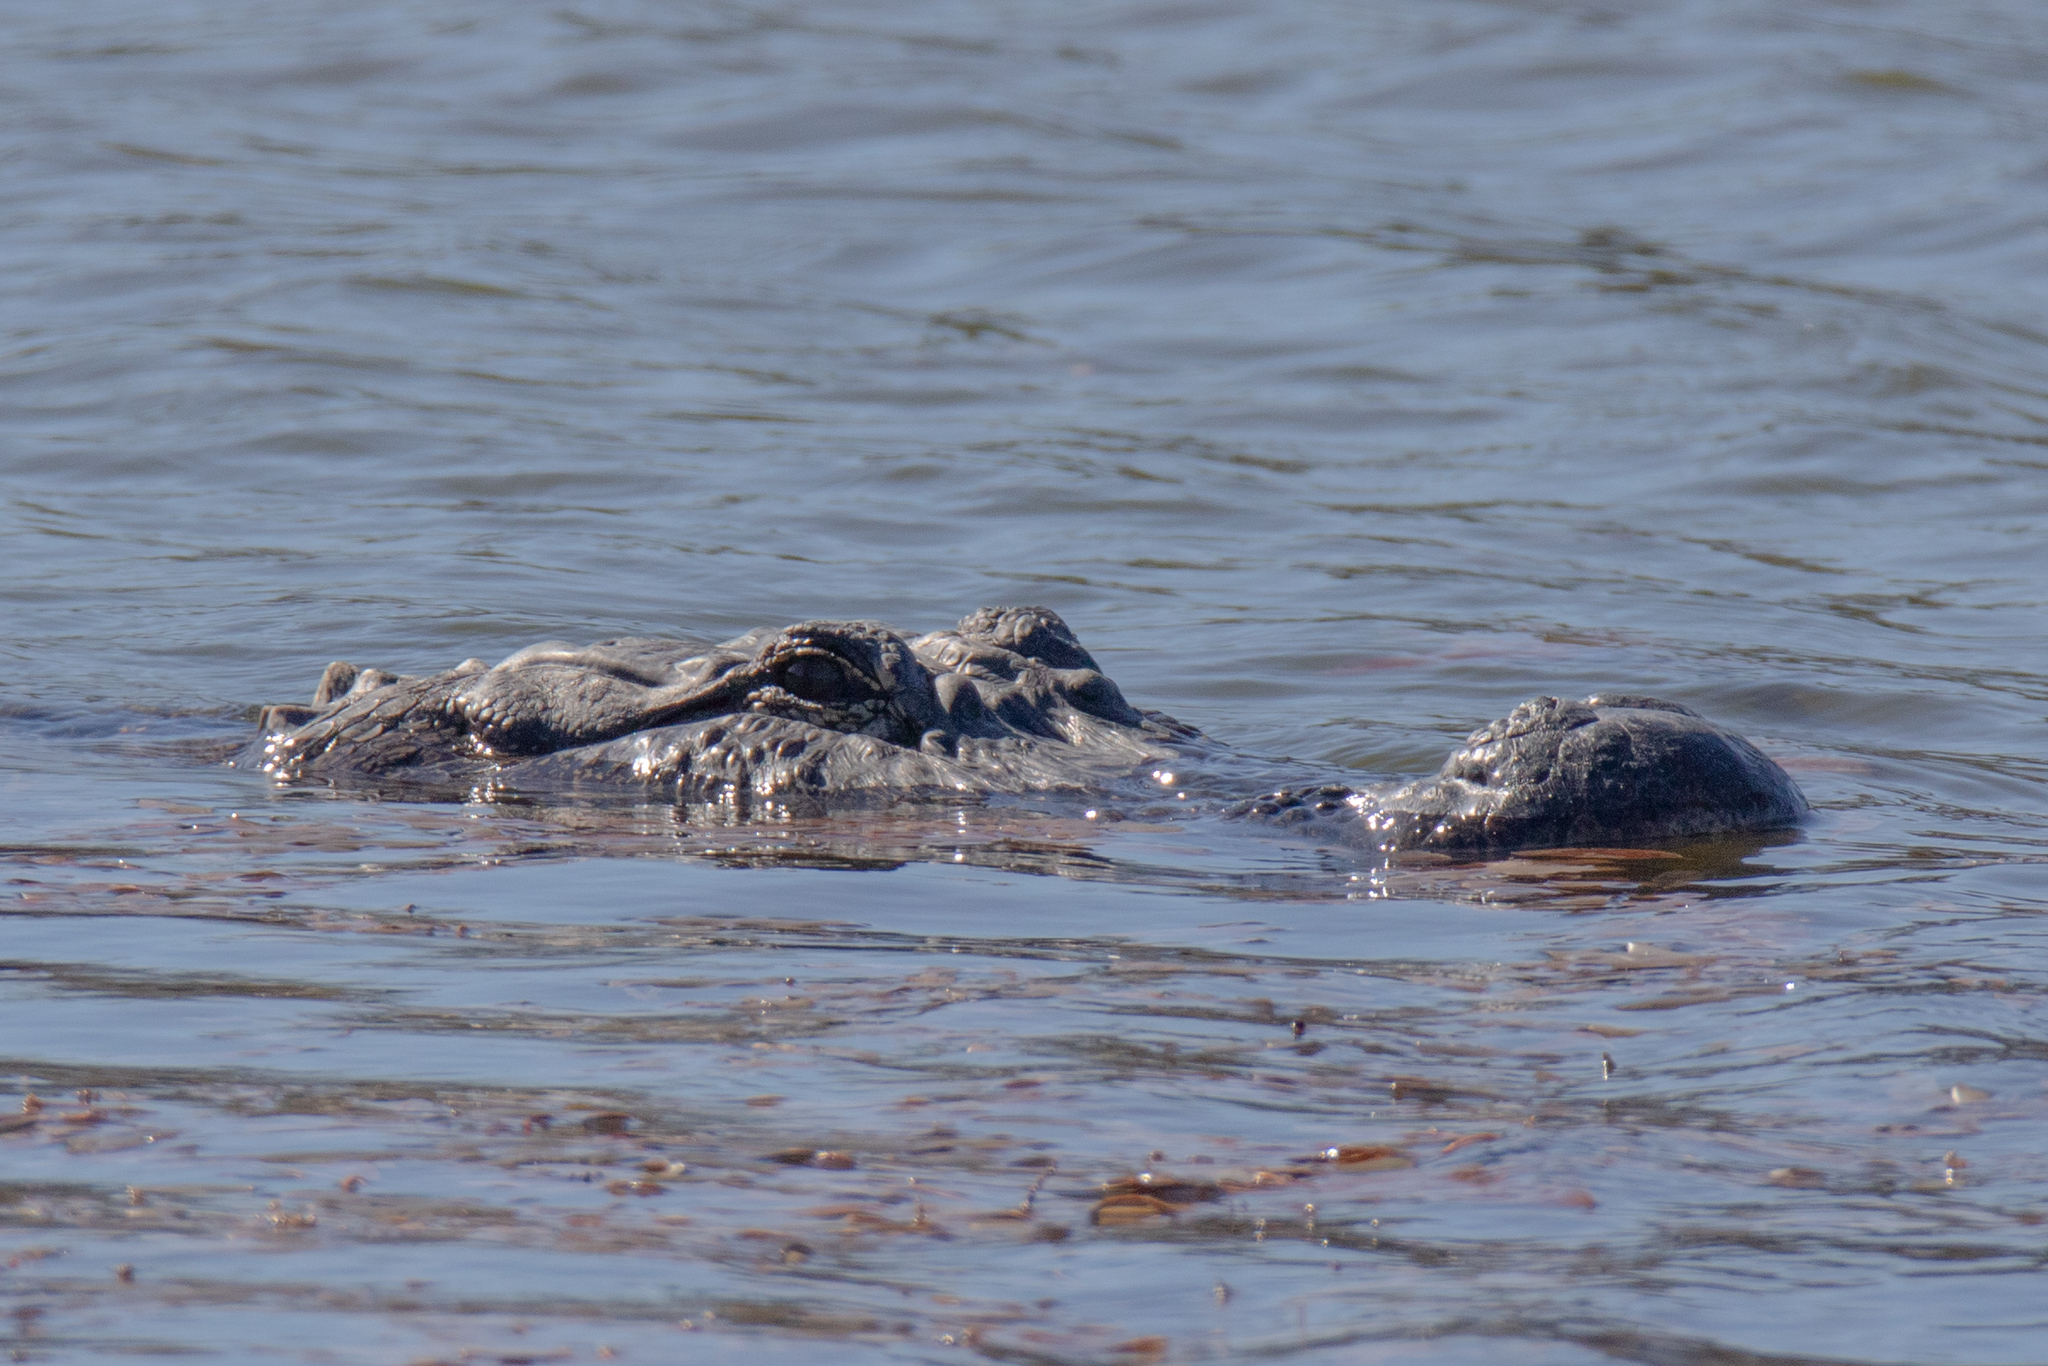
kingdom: Animalia
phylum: Chordata
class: Crocodylia
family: Alligatoridae
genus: Alligator
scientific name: Alligator mississippiensis
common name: American alligator
